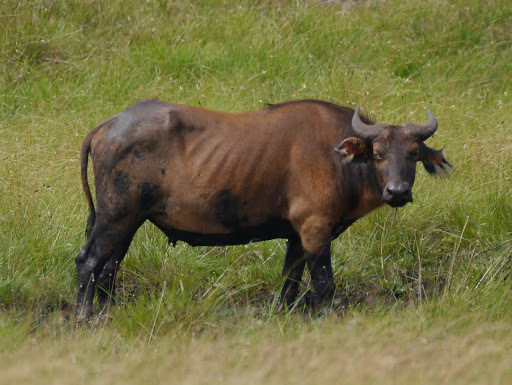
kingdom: Animalia
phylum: Chordata
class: Mammalia
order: Artiodactyla
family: Bovidae
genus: Syncerus
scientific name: Syncerus caffer
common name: African buffalo
